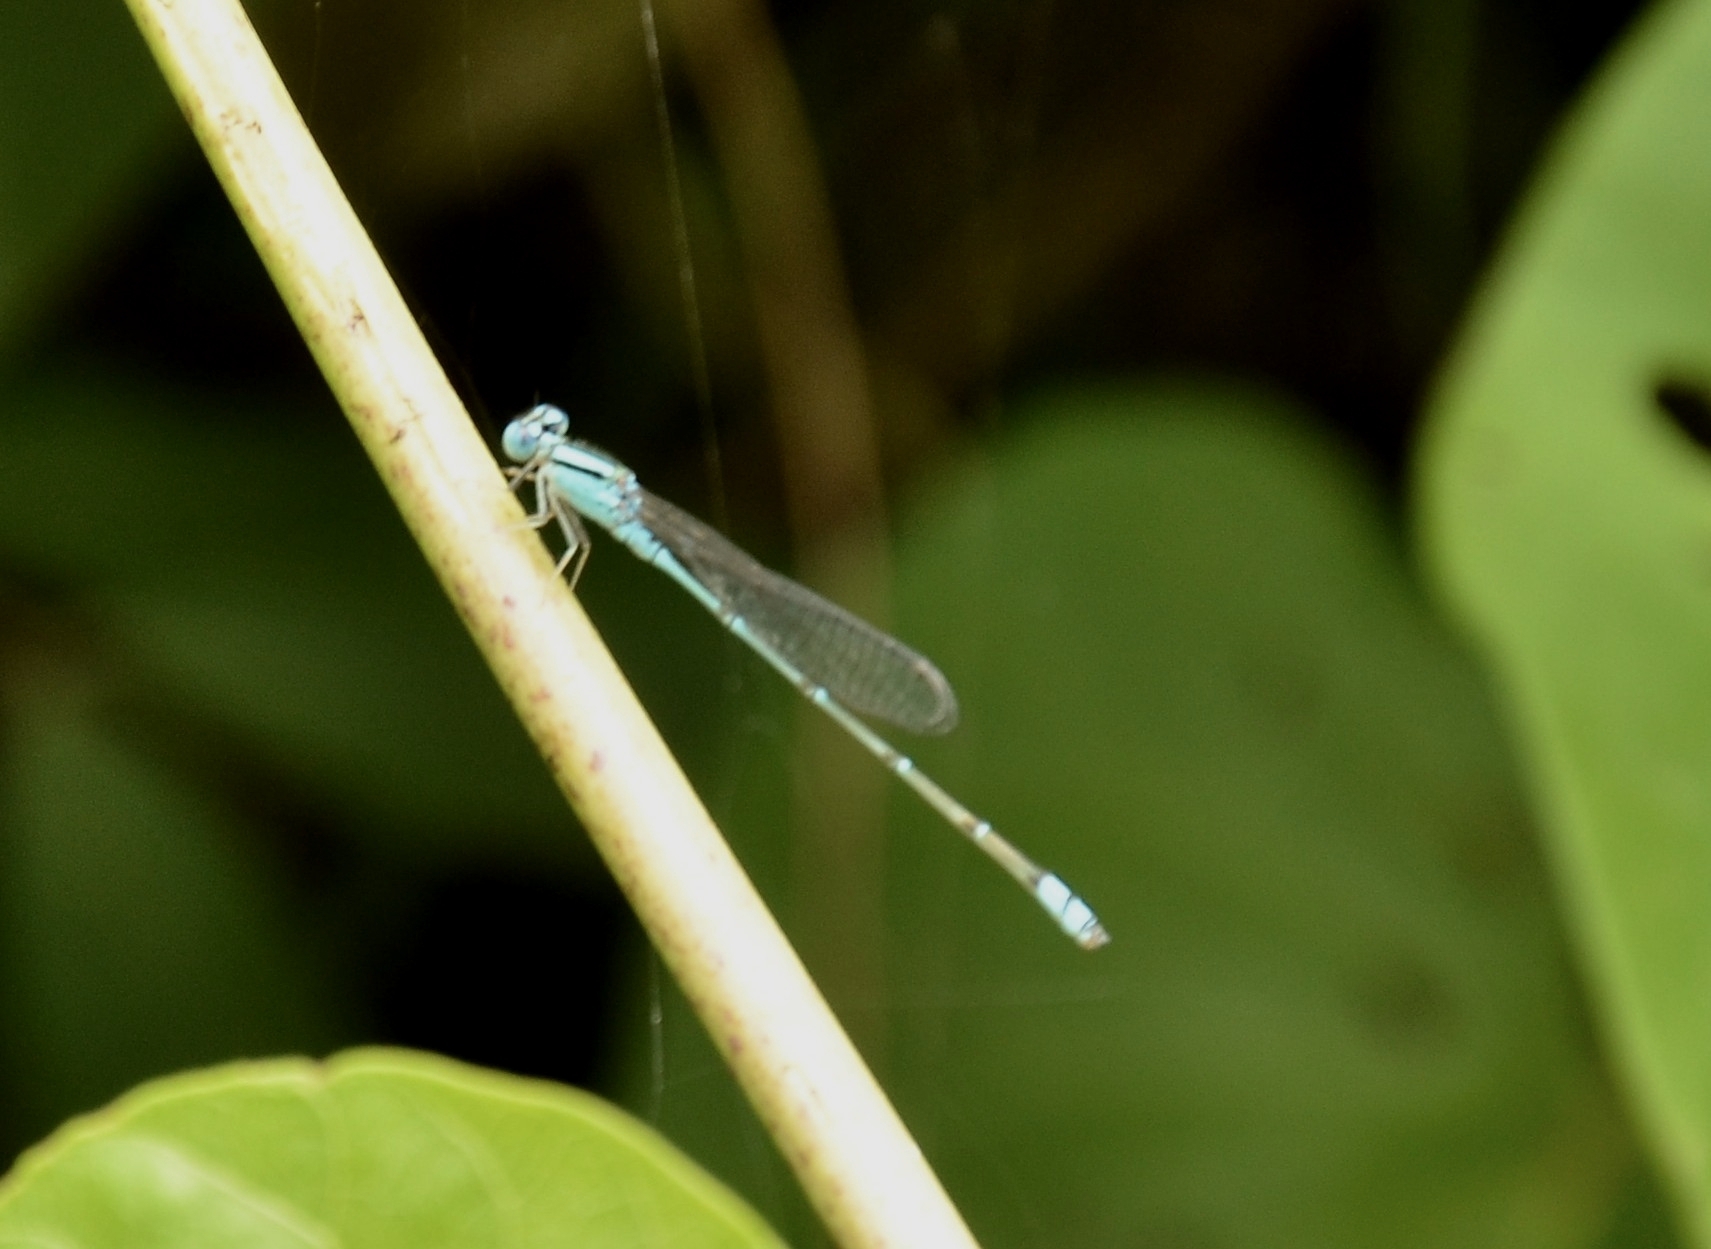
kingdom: Animalia
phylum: Arthropoda
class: Insecta
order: Odonata
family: Coenagrionidae
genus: Pseudagrion
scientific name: Pseudagrion microcephalum
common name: Blue riverdamsel
